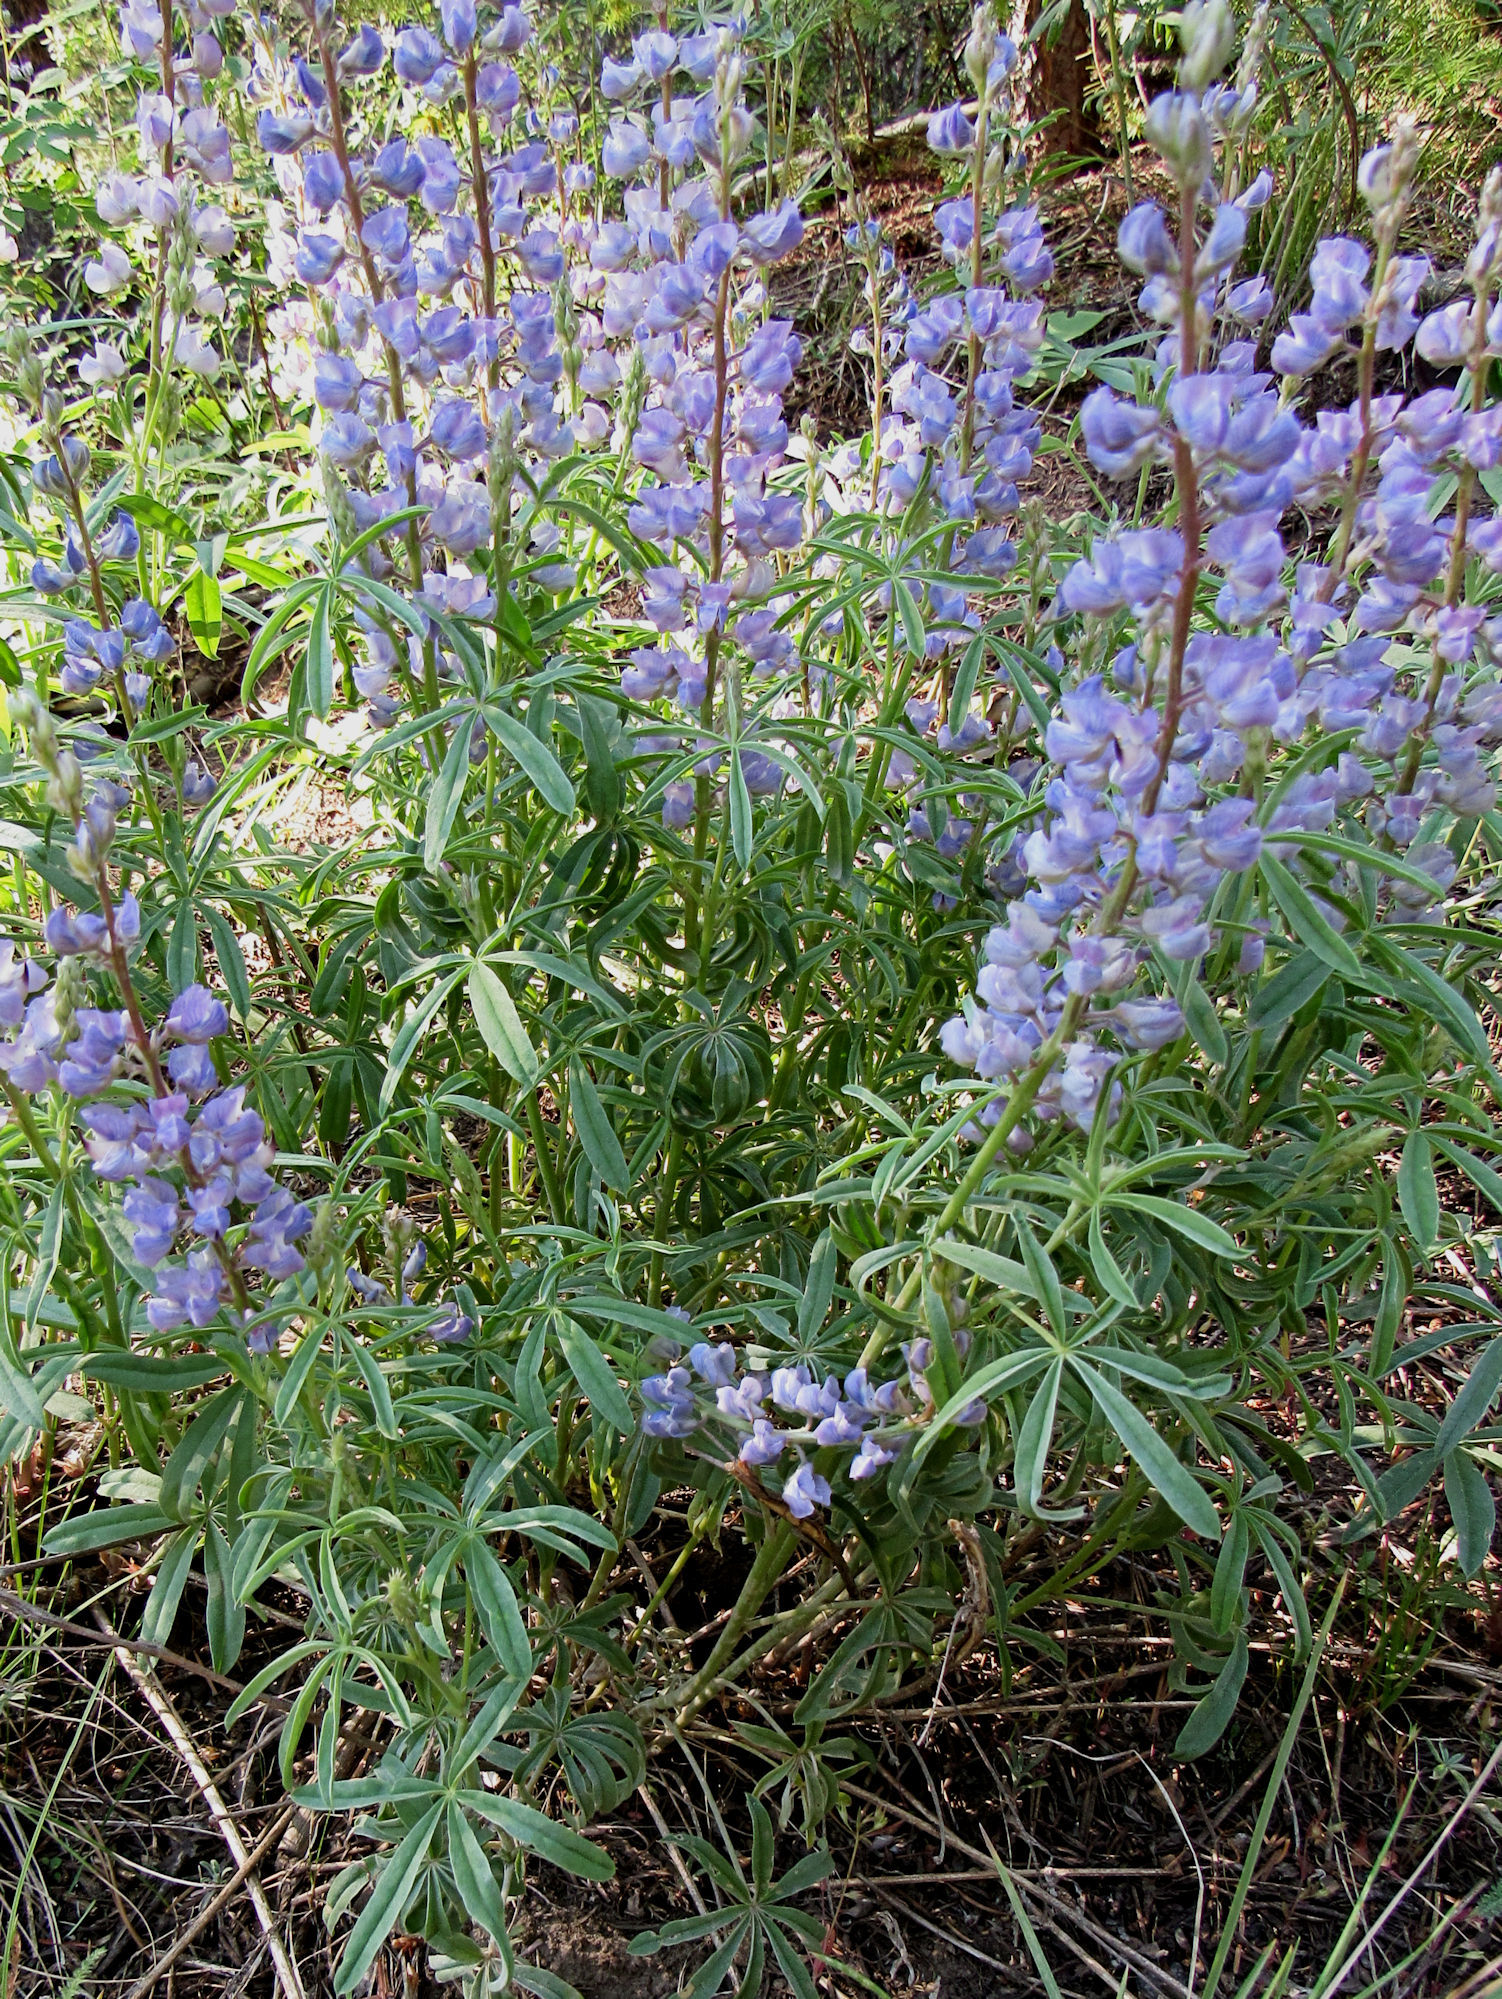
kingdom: Plantae
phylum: Tracheophyta
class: Magnoliopsida
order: Fabales
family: Fabaceae
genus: Lupinus
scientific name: Lupinus argenteus
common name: Silvery lupine
